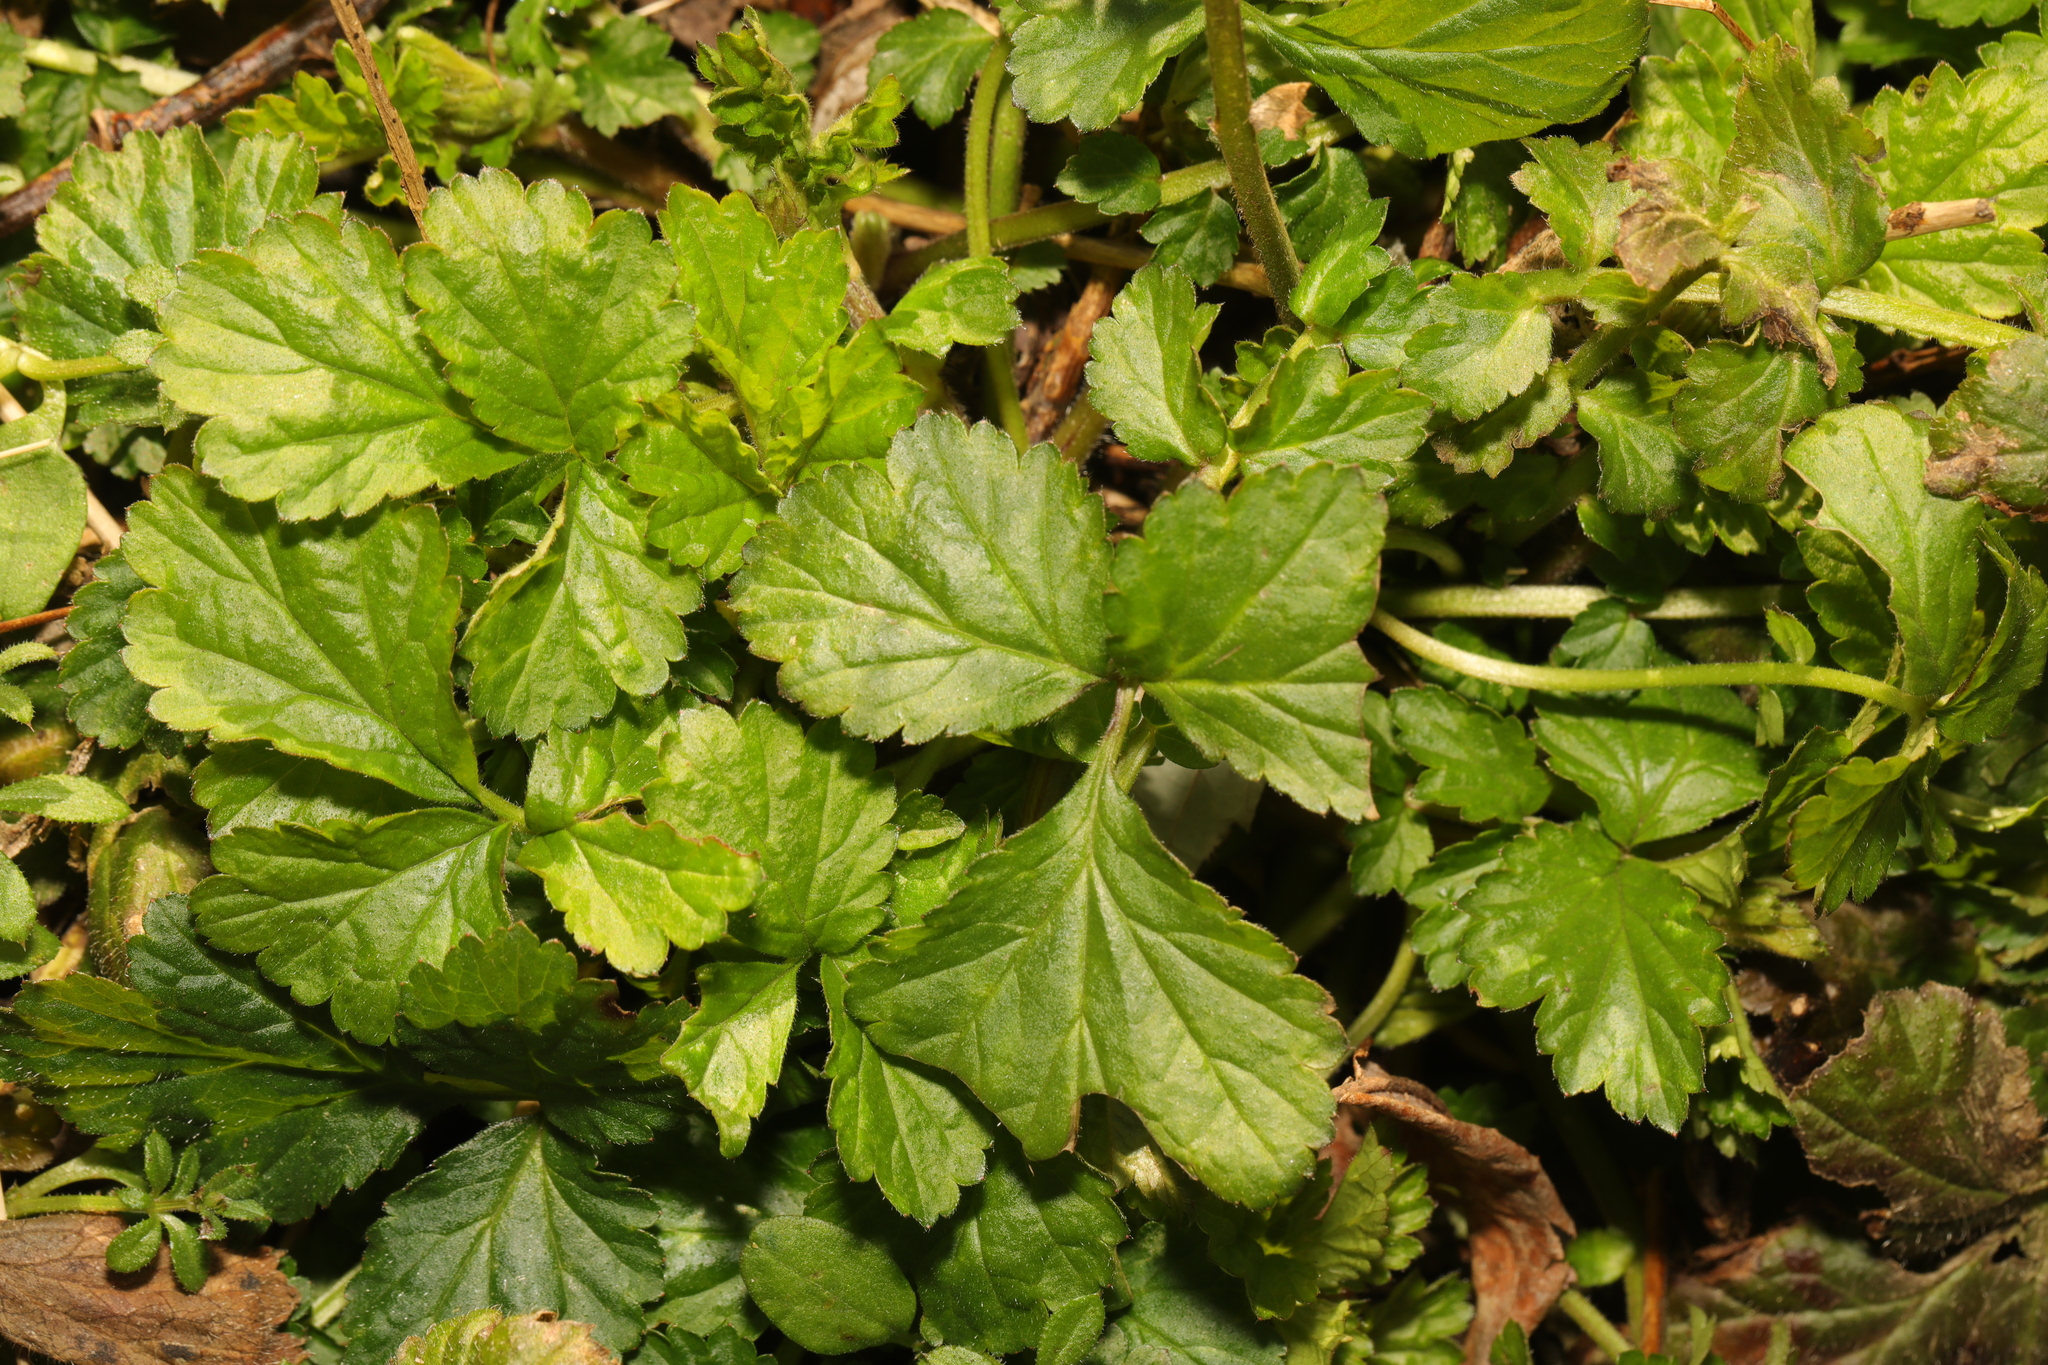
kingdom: Plantae
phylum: Tracheophyta
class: Magnoliopsida
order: Rosales
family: Rosaceae
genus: Geum
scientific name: Geum urbanum
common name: Wood avens
